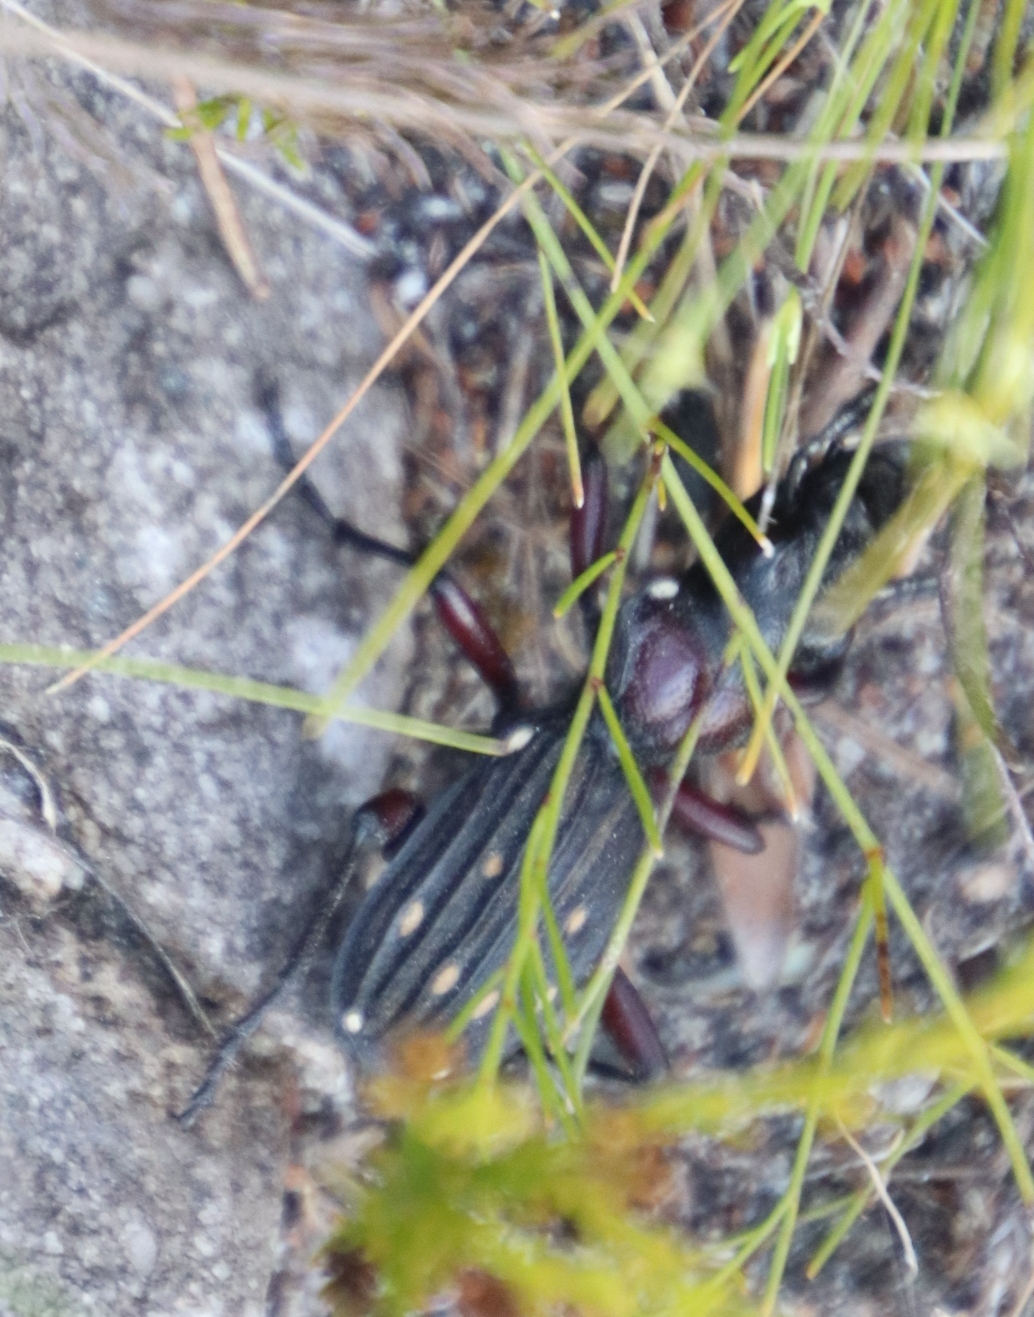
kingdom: Animalia
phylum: Arthropoda
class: Insecta
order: Coleoptera
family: Carabidae
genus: Anthia
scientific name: Anthia decemguttata
